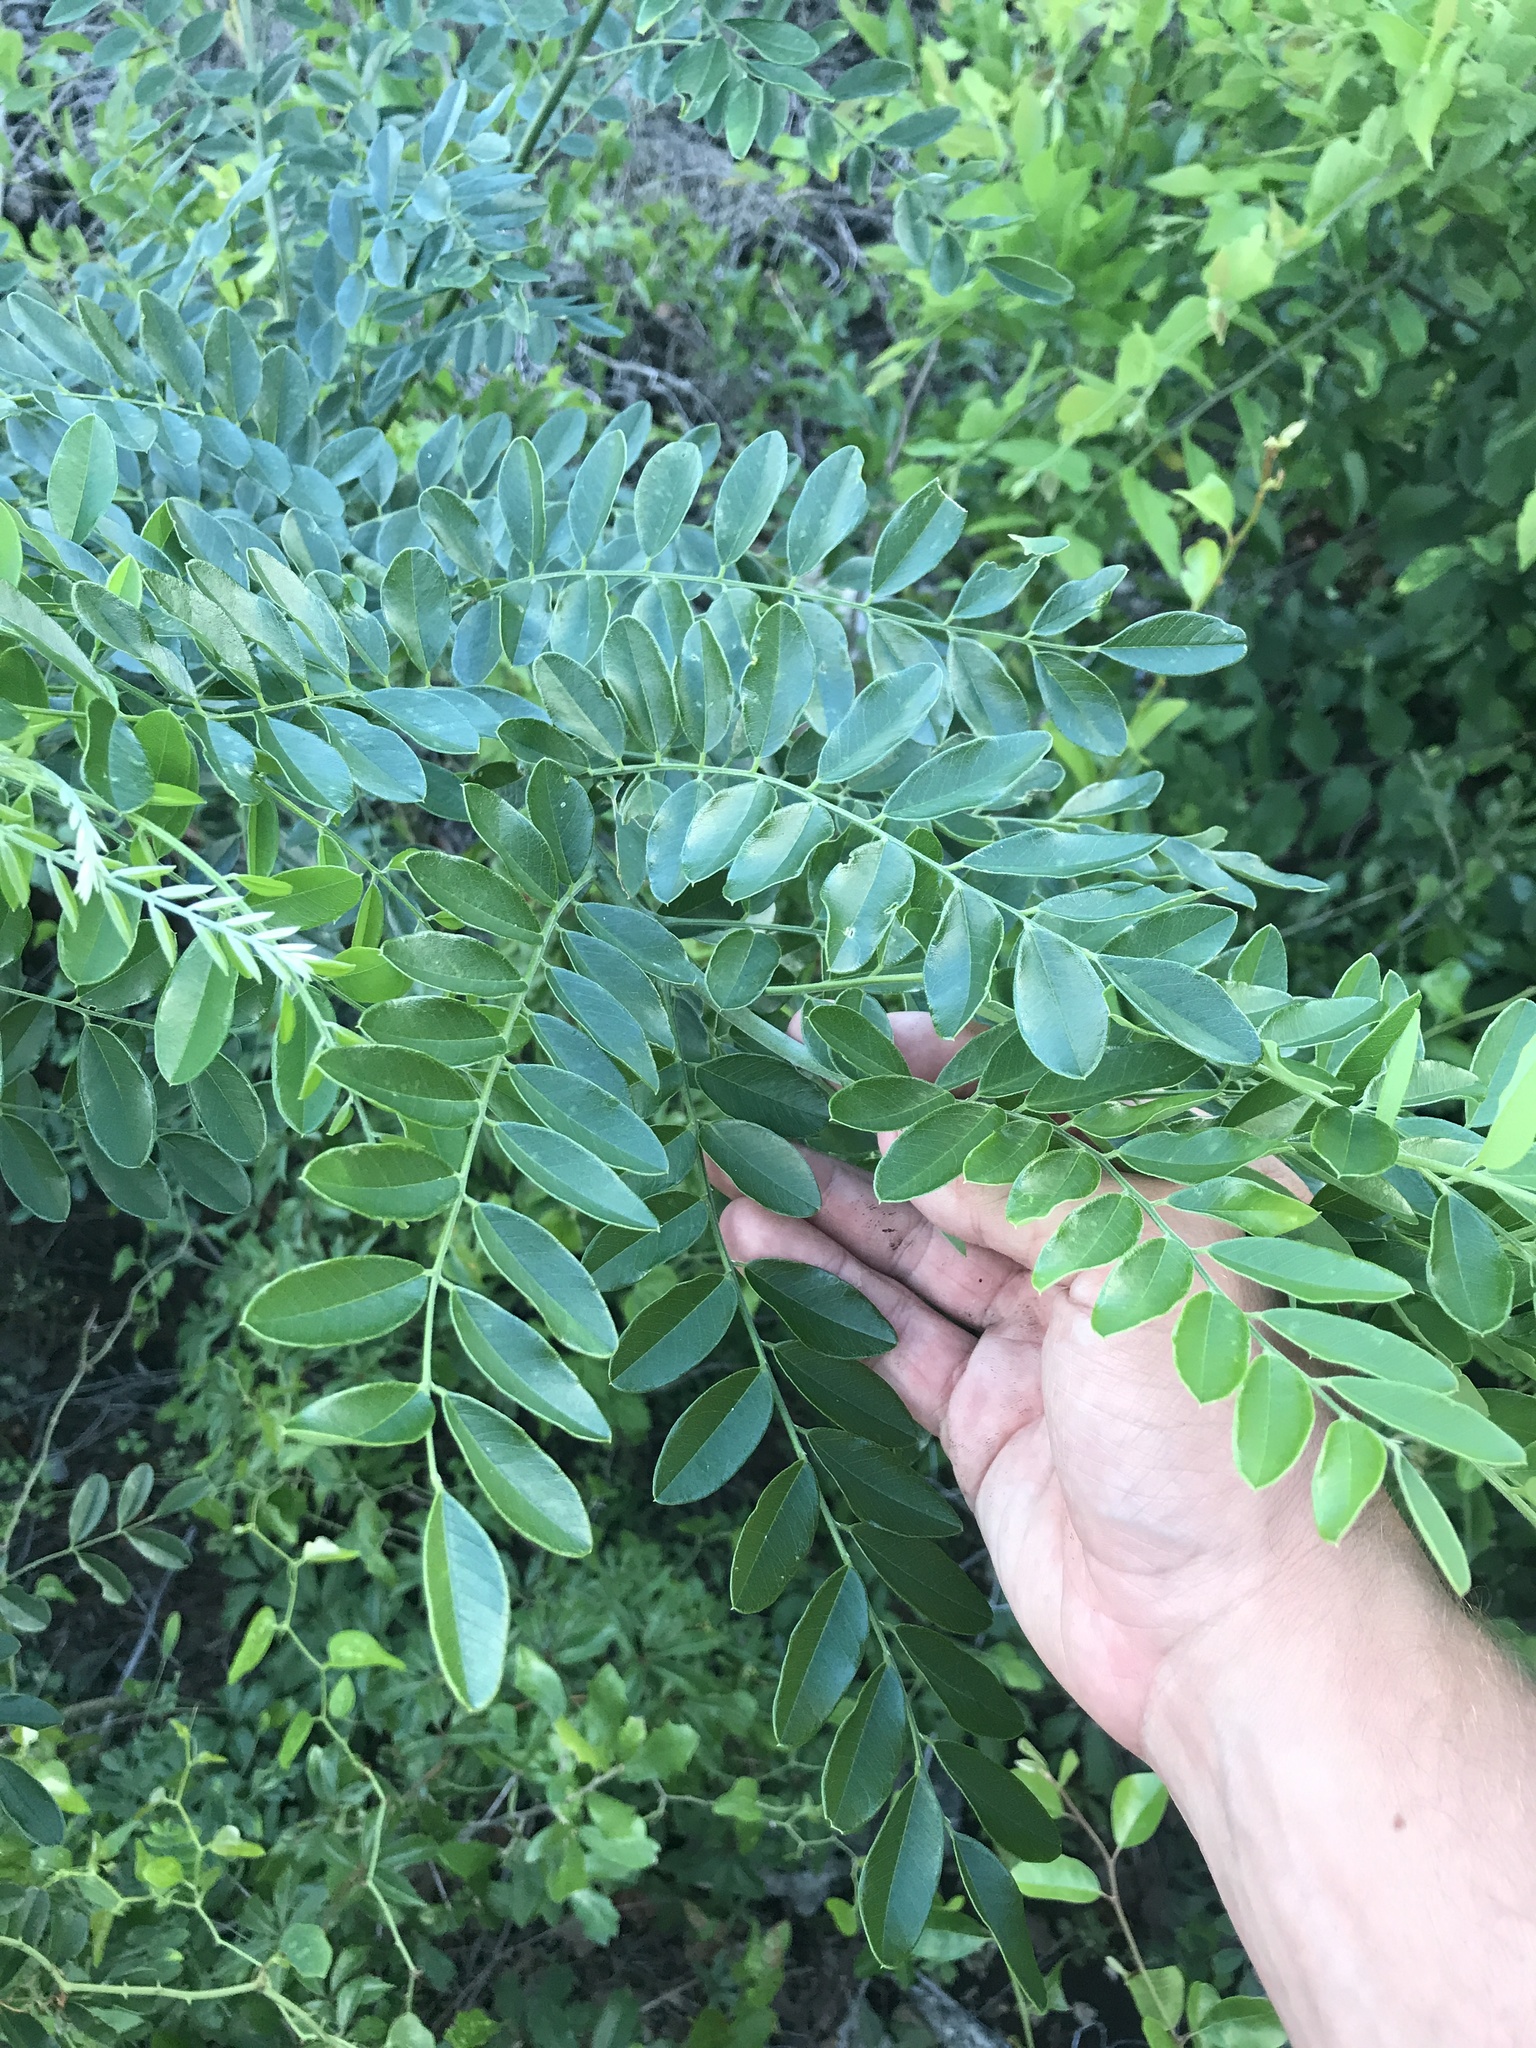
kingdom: Plantae
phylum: Tracheophyta
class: Magnoliopsida
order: Fabales
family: Fabaceae
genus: Styphnolobium
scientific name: Styphnolobium affine
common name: Texas sophora
